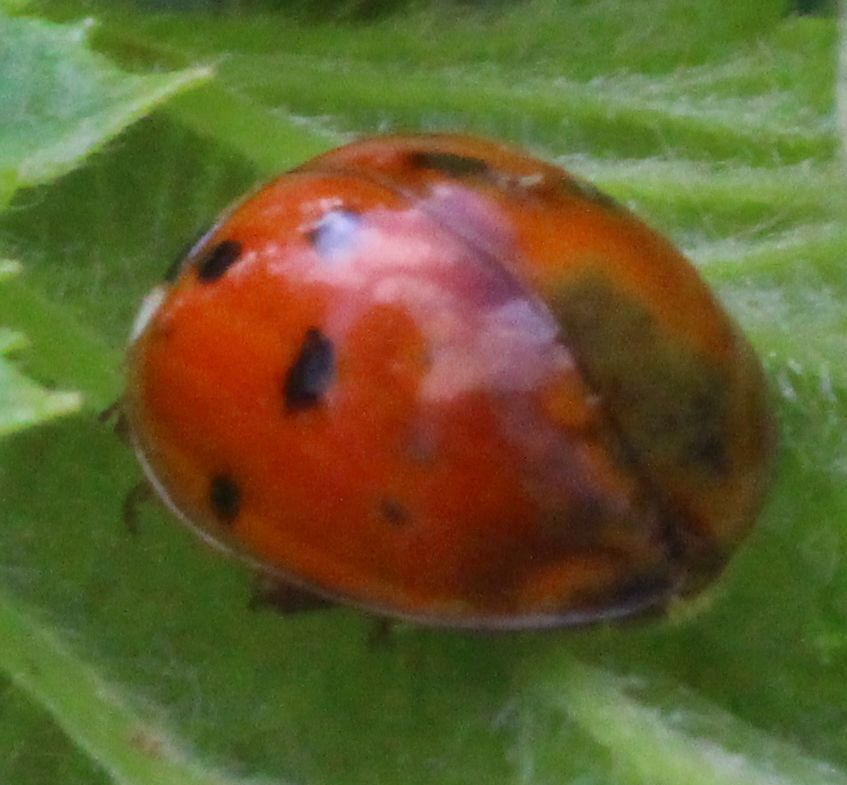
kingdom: Animalia
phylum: Arthropoda
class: Insecta
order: Coleoptera
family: Coccinellidae
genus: Harmonia
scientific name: Harmonia axyridis
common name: Harlequin ladybird
